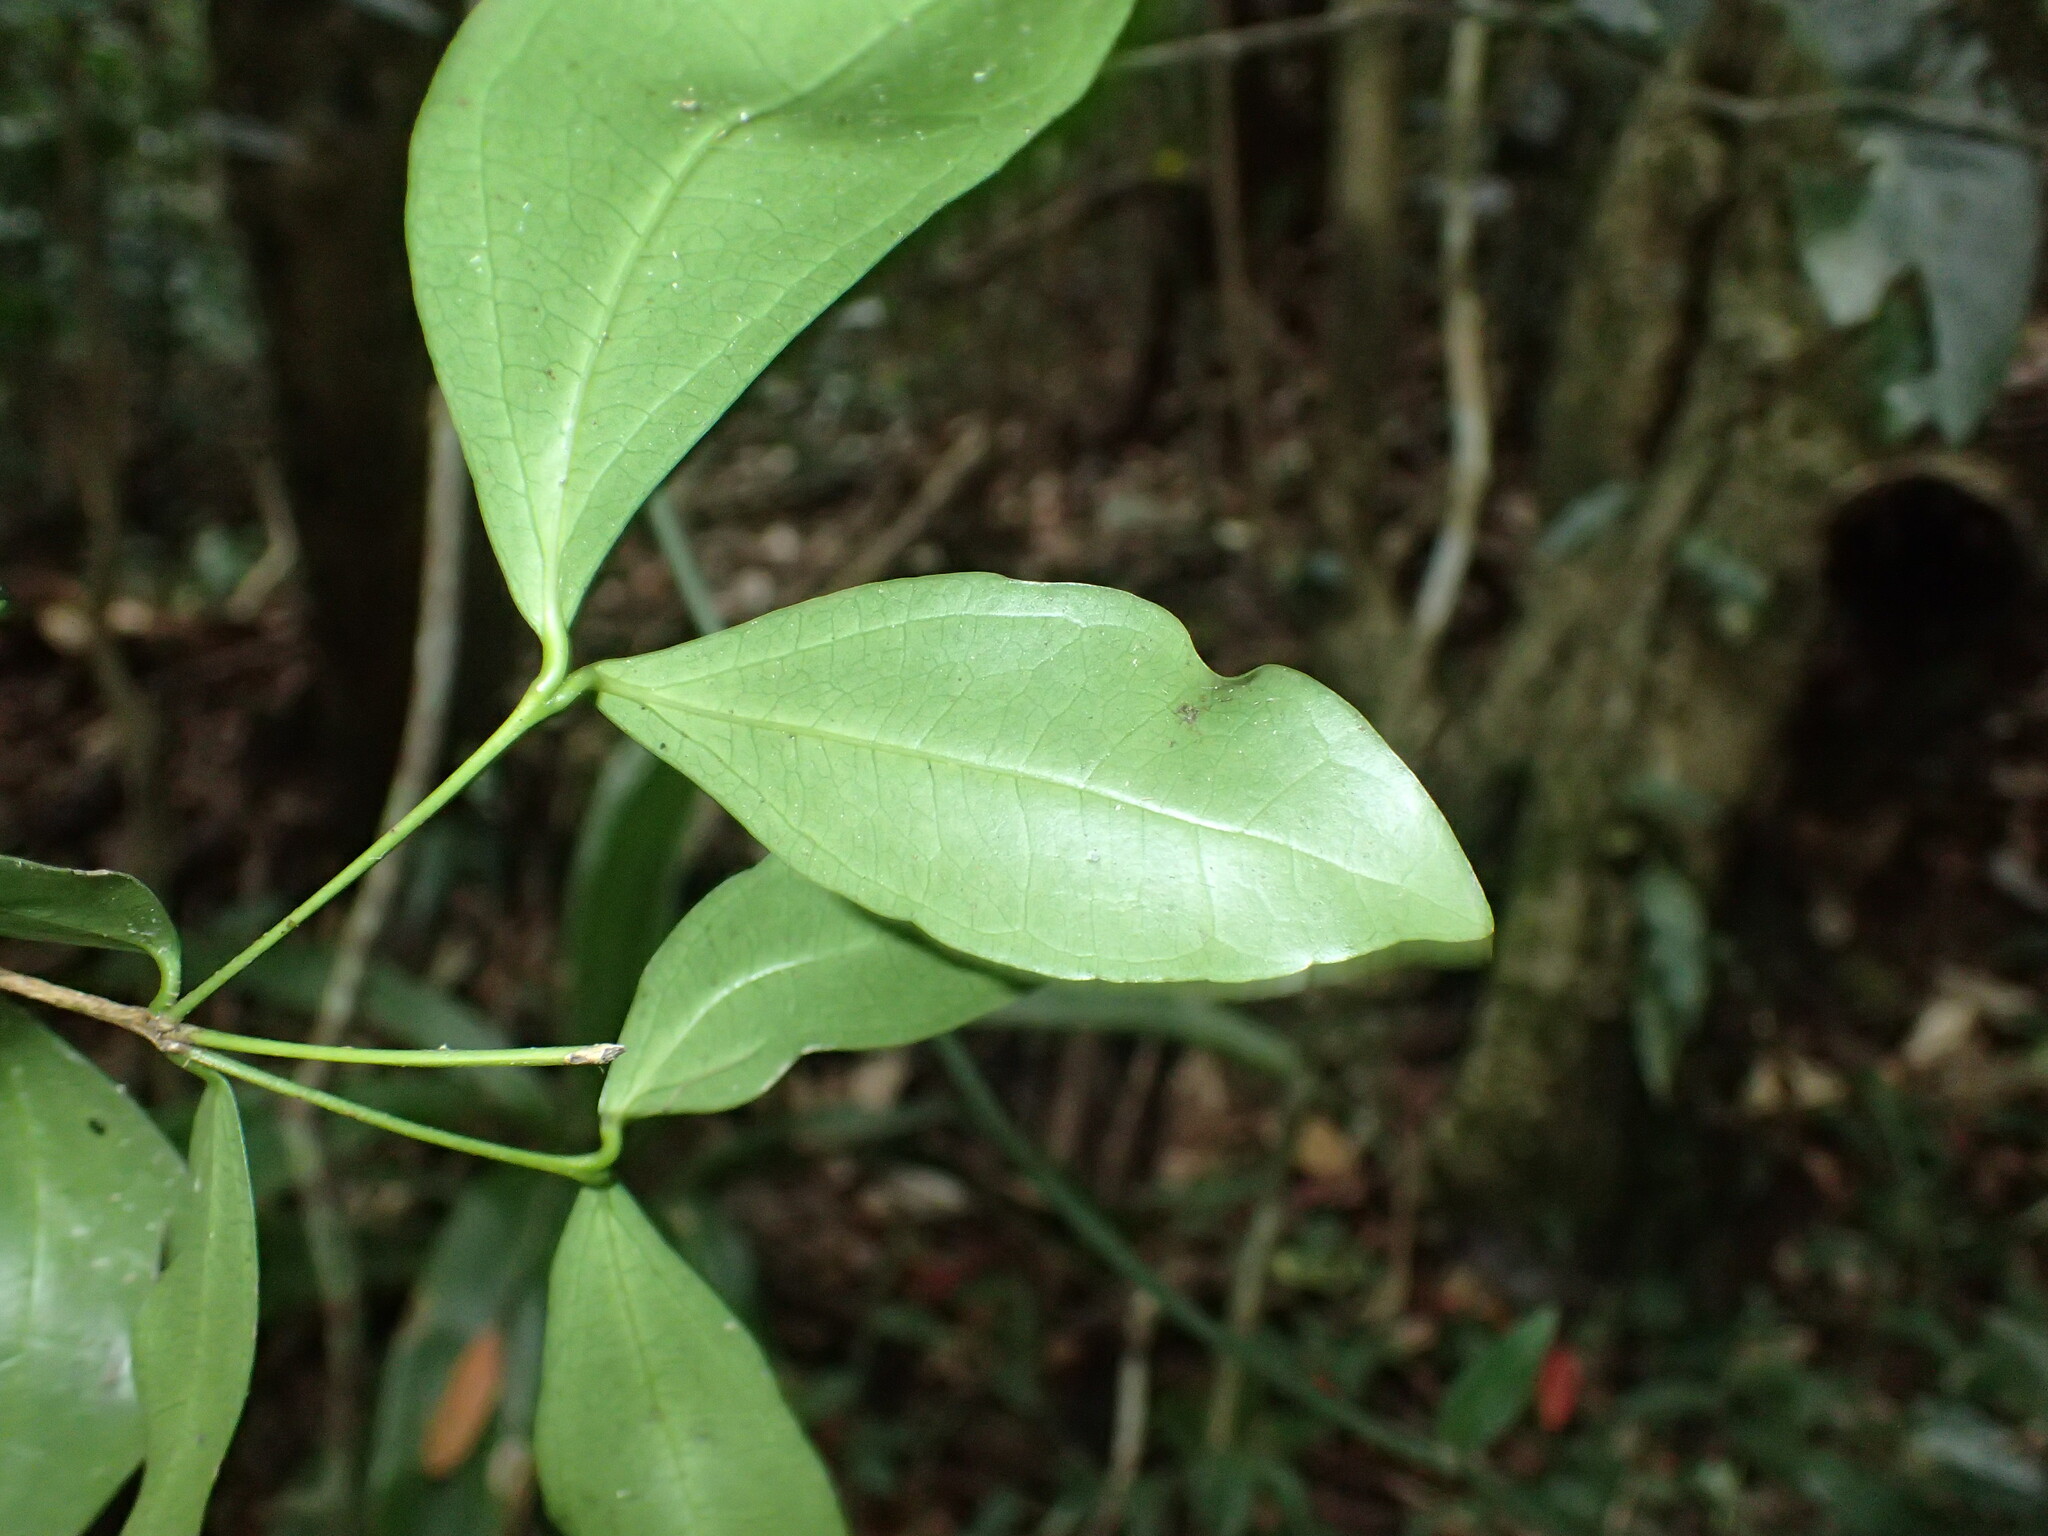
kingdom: Plantae
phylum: Tracheophyta
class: Magnoliopsida
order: Gentianales
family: Loganiaceae
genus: Strychnos
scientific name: Strychnos gerrardii
